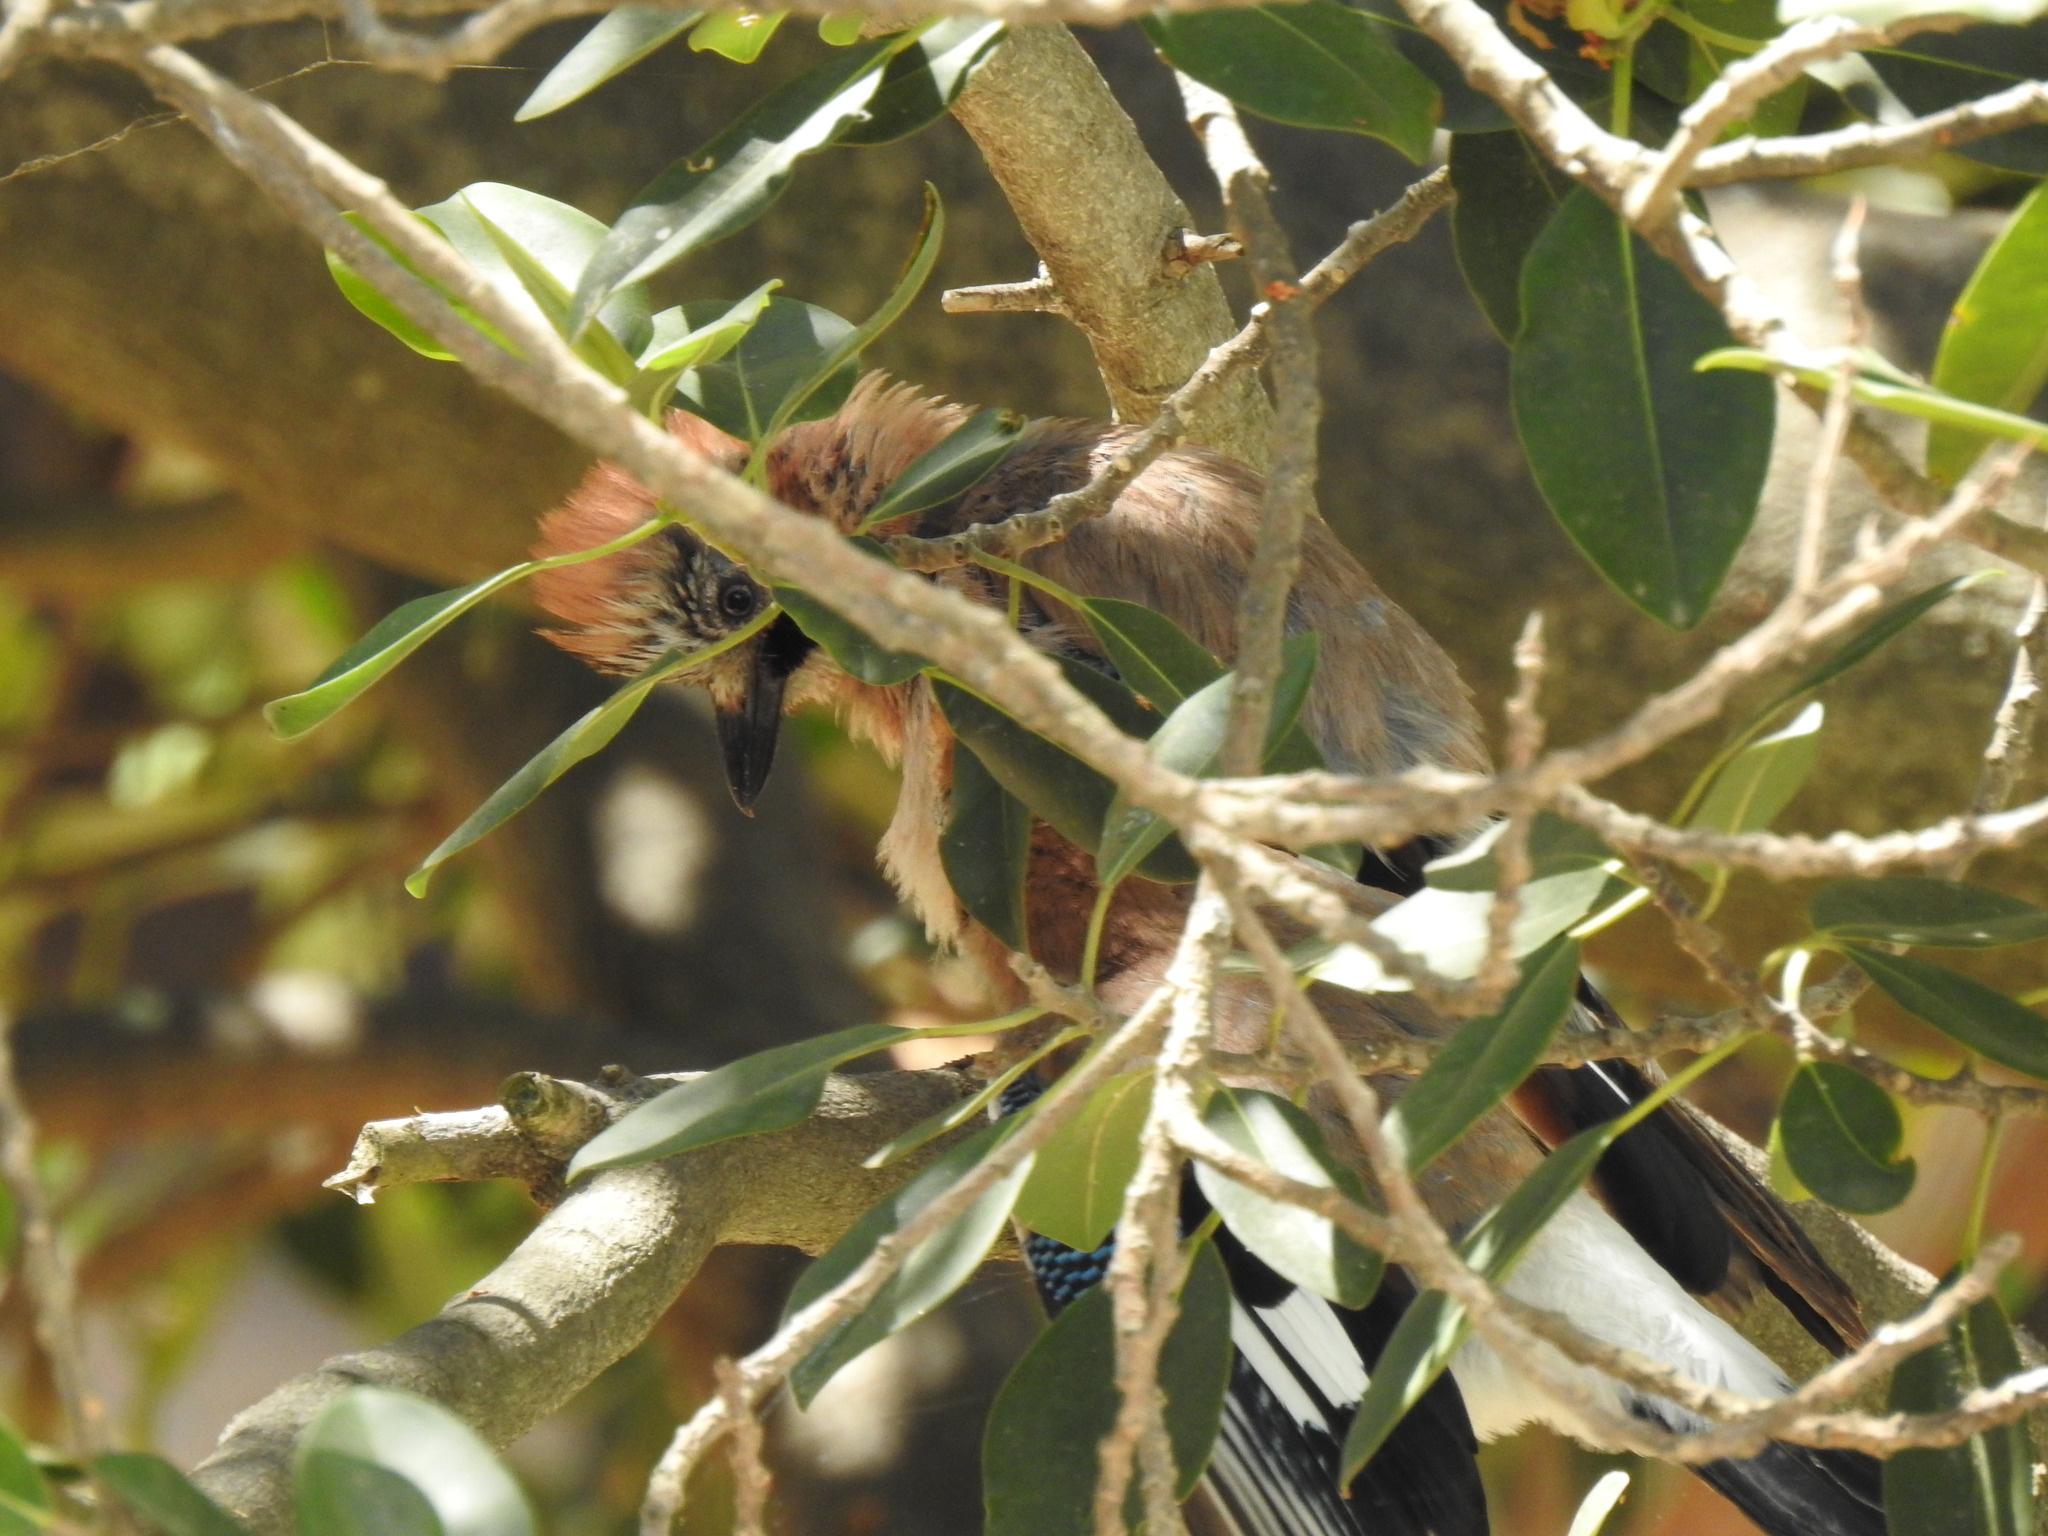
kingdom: Animalia
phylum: Chordata
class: Aves
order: Passeriformes
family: Corvidae
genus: Garrulus
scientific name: Garrulus glandarius
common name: Eurasian jay
